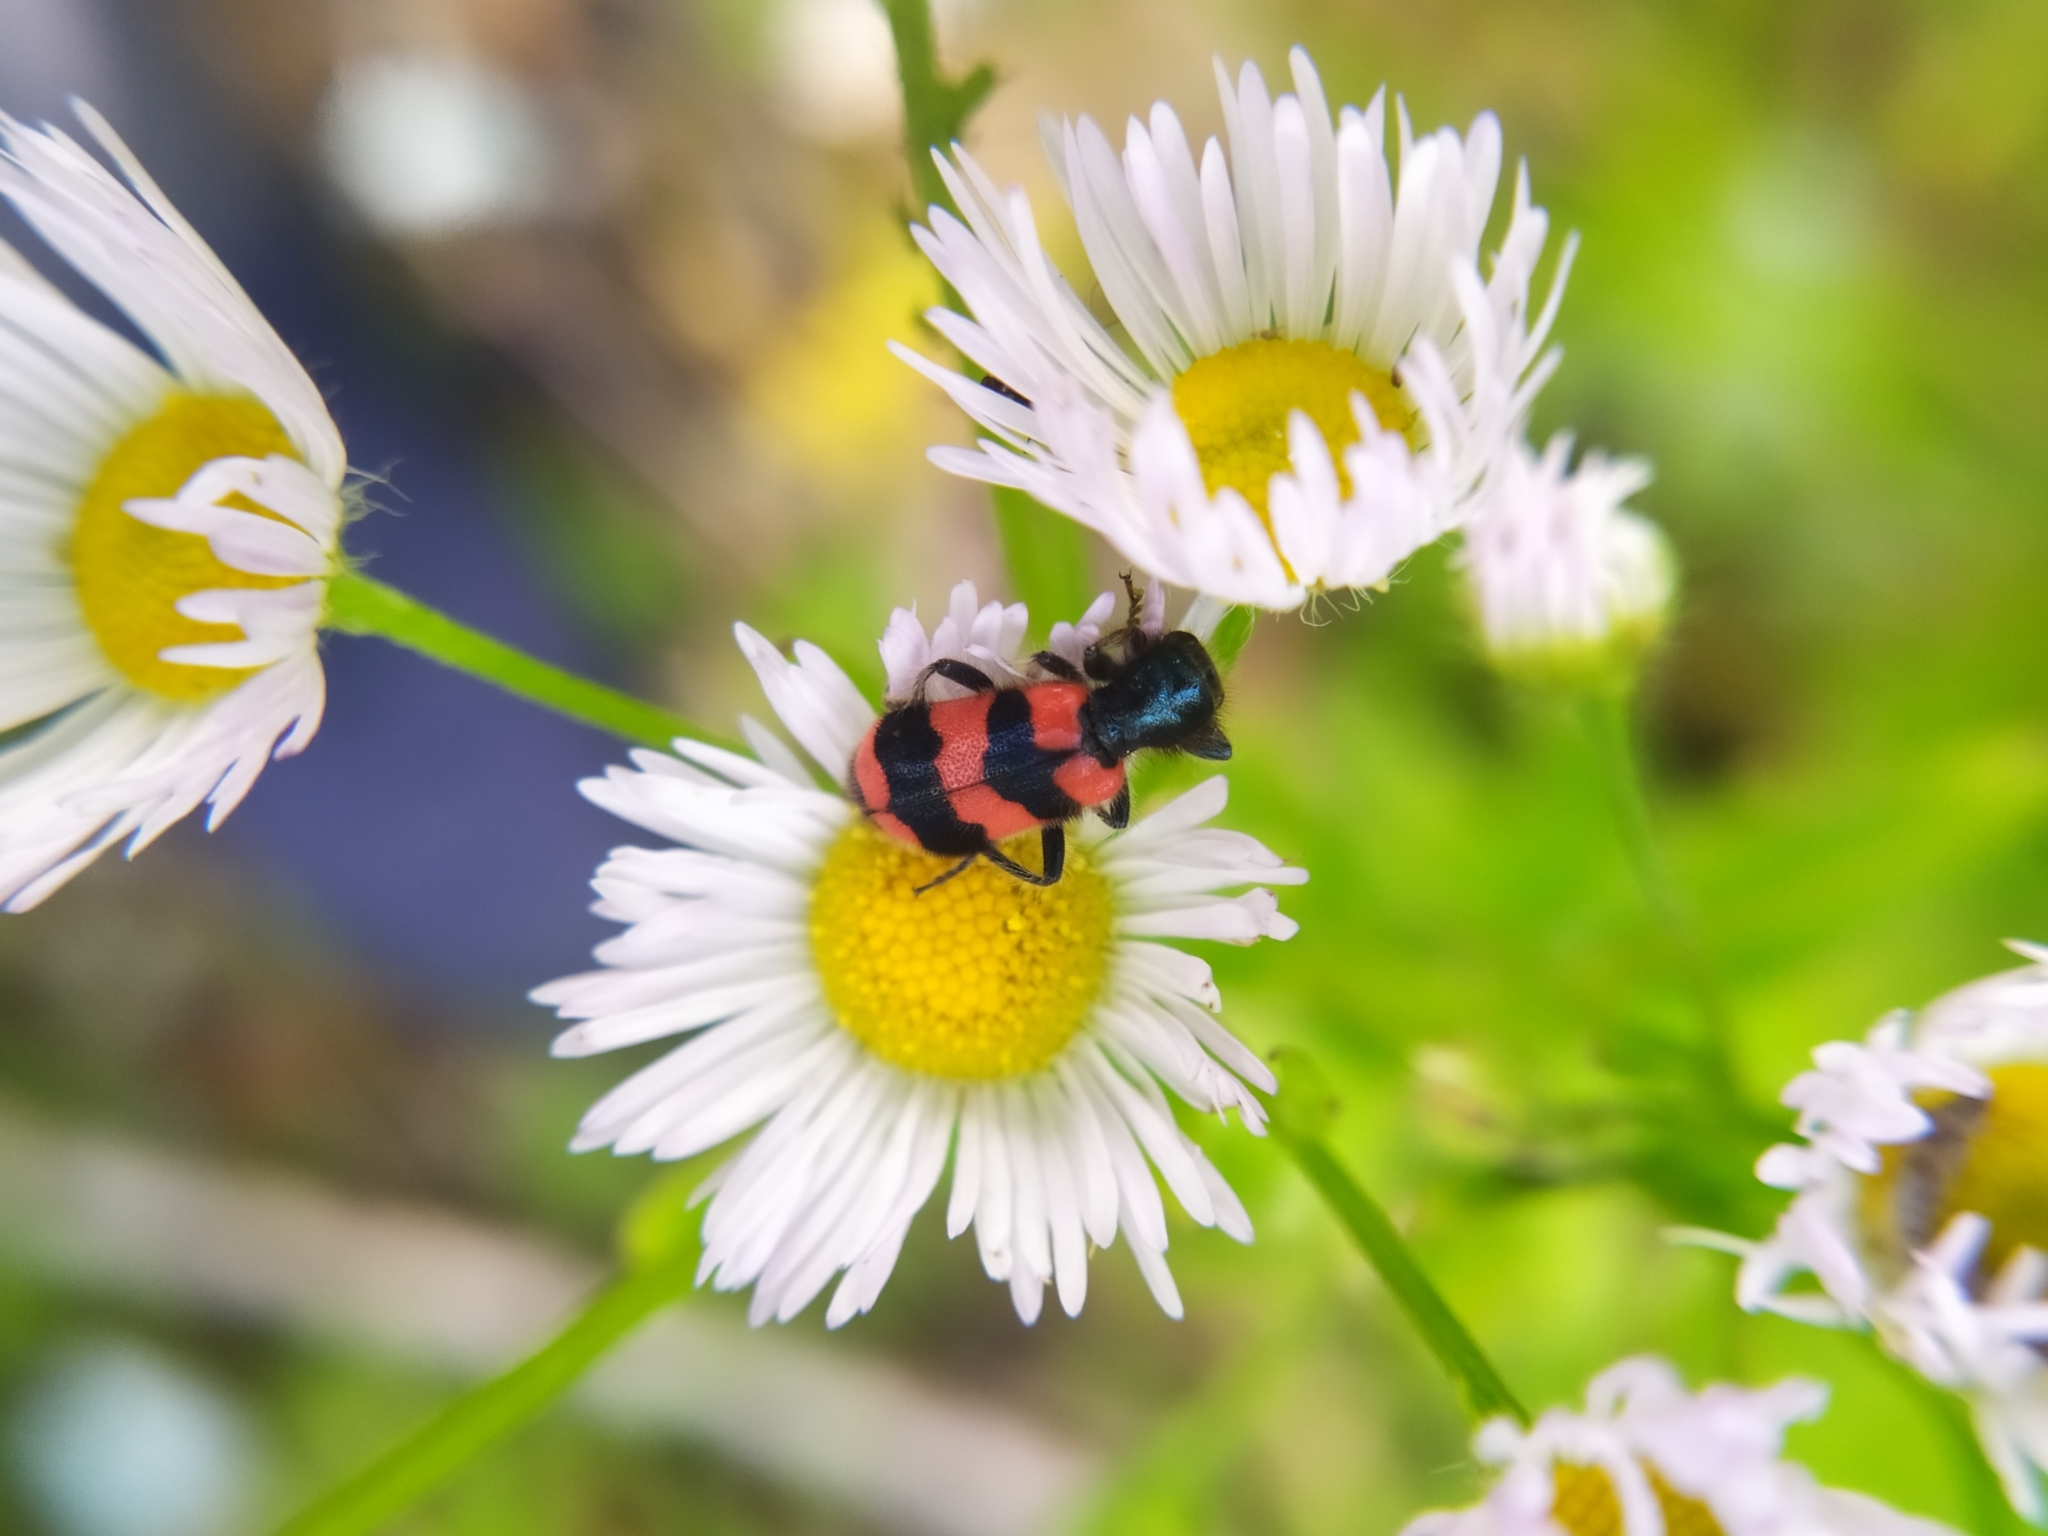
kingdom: Animalia
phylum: Arthropoda
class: Insecta
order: Coleoptera
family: Cleridae
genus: Trichodes
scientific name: Trichodes apiarius
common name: Bee-eating beetle
